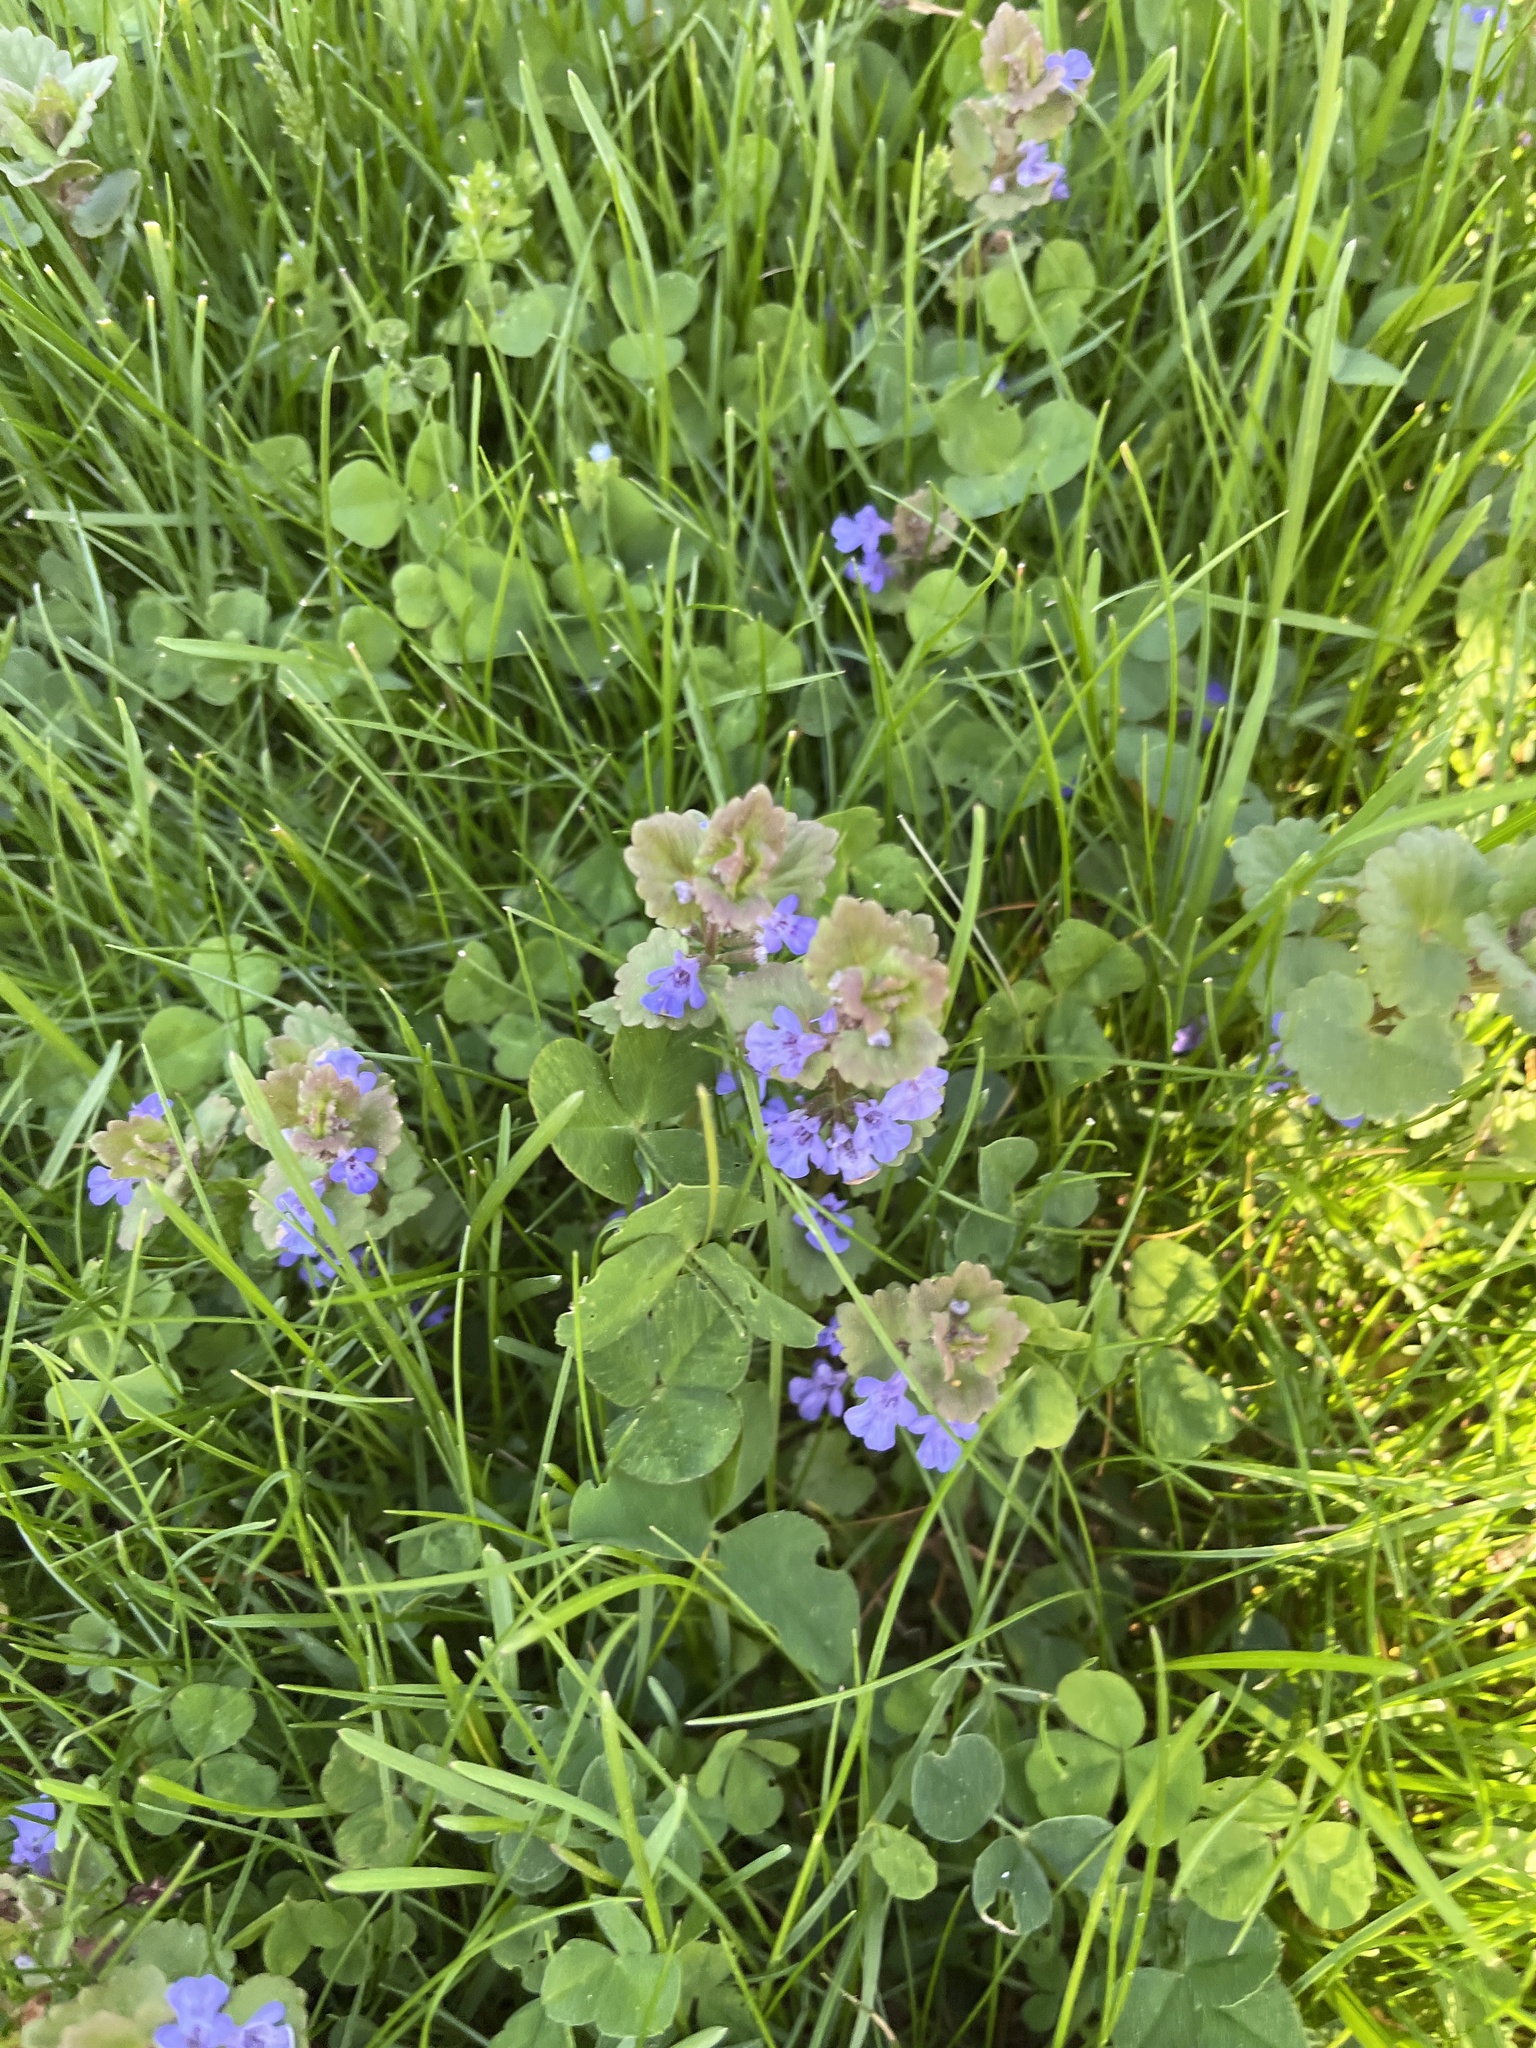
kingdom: Plantae
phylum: Tracheophyta
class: Magnoliopsida
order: Lamiales
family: Lamiaceae
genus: Glechoma
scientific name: Glechoma hederacea
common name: Ground ivy
